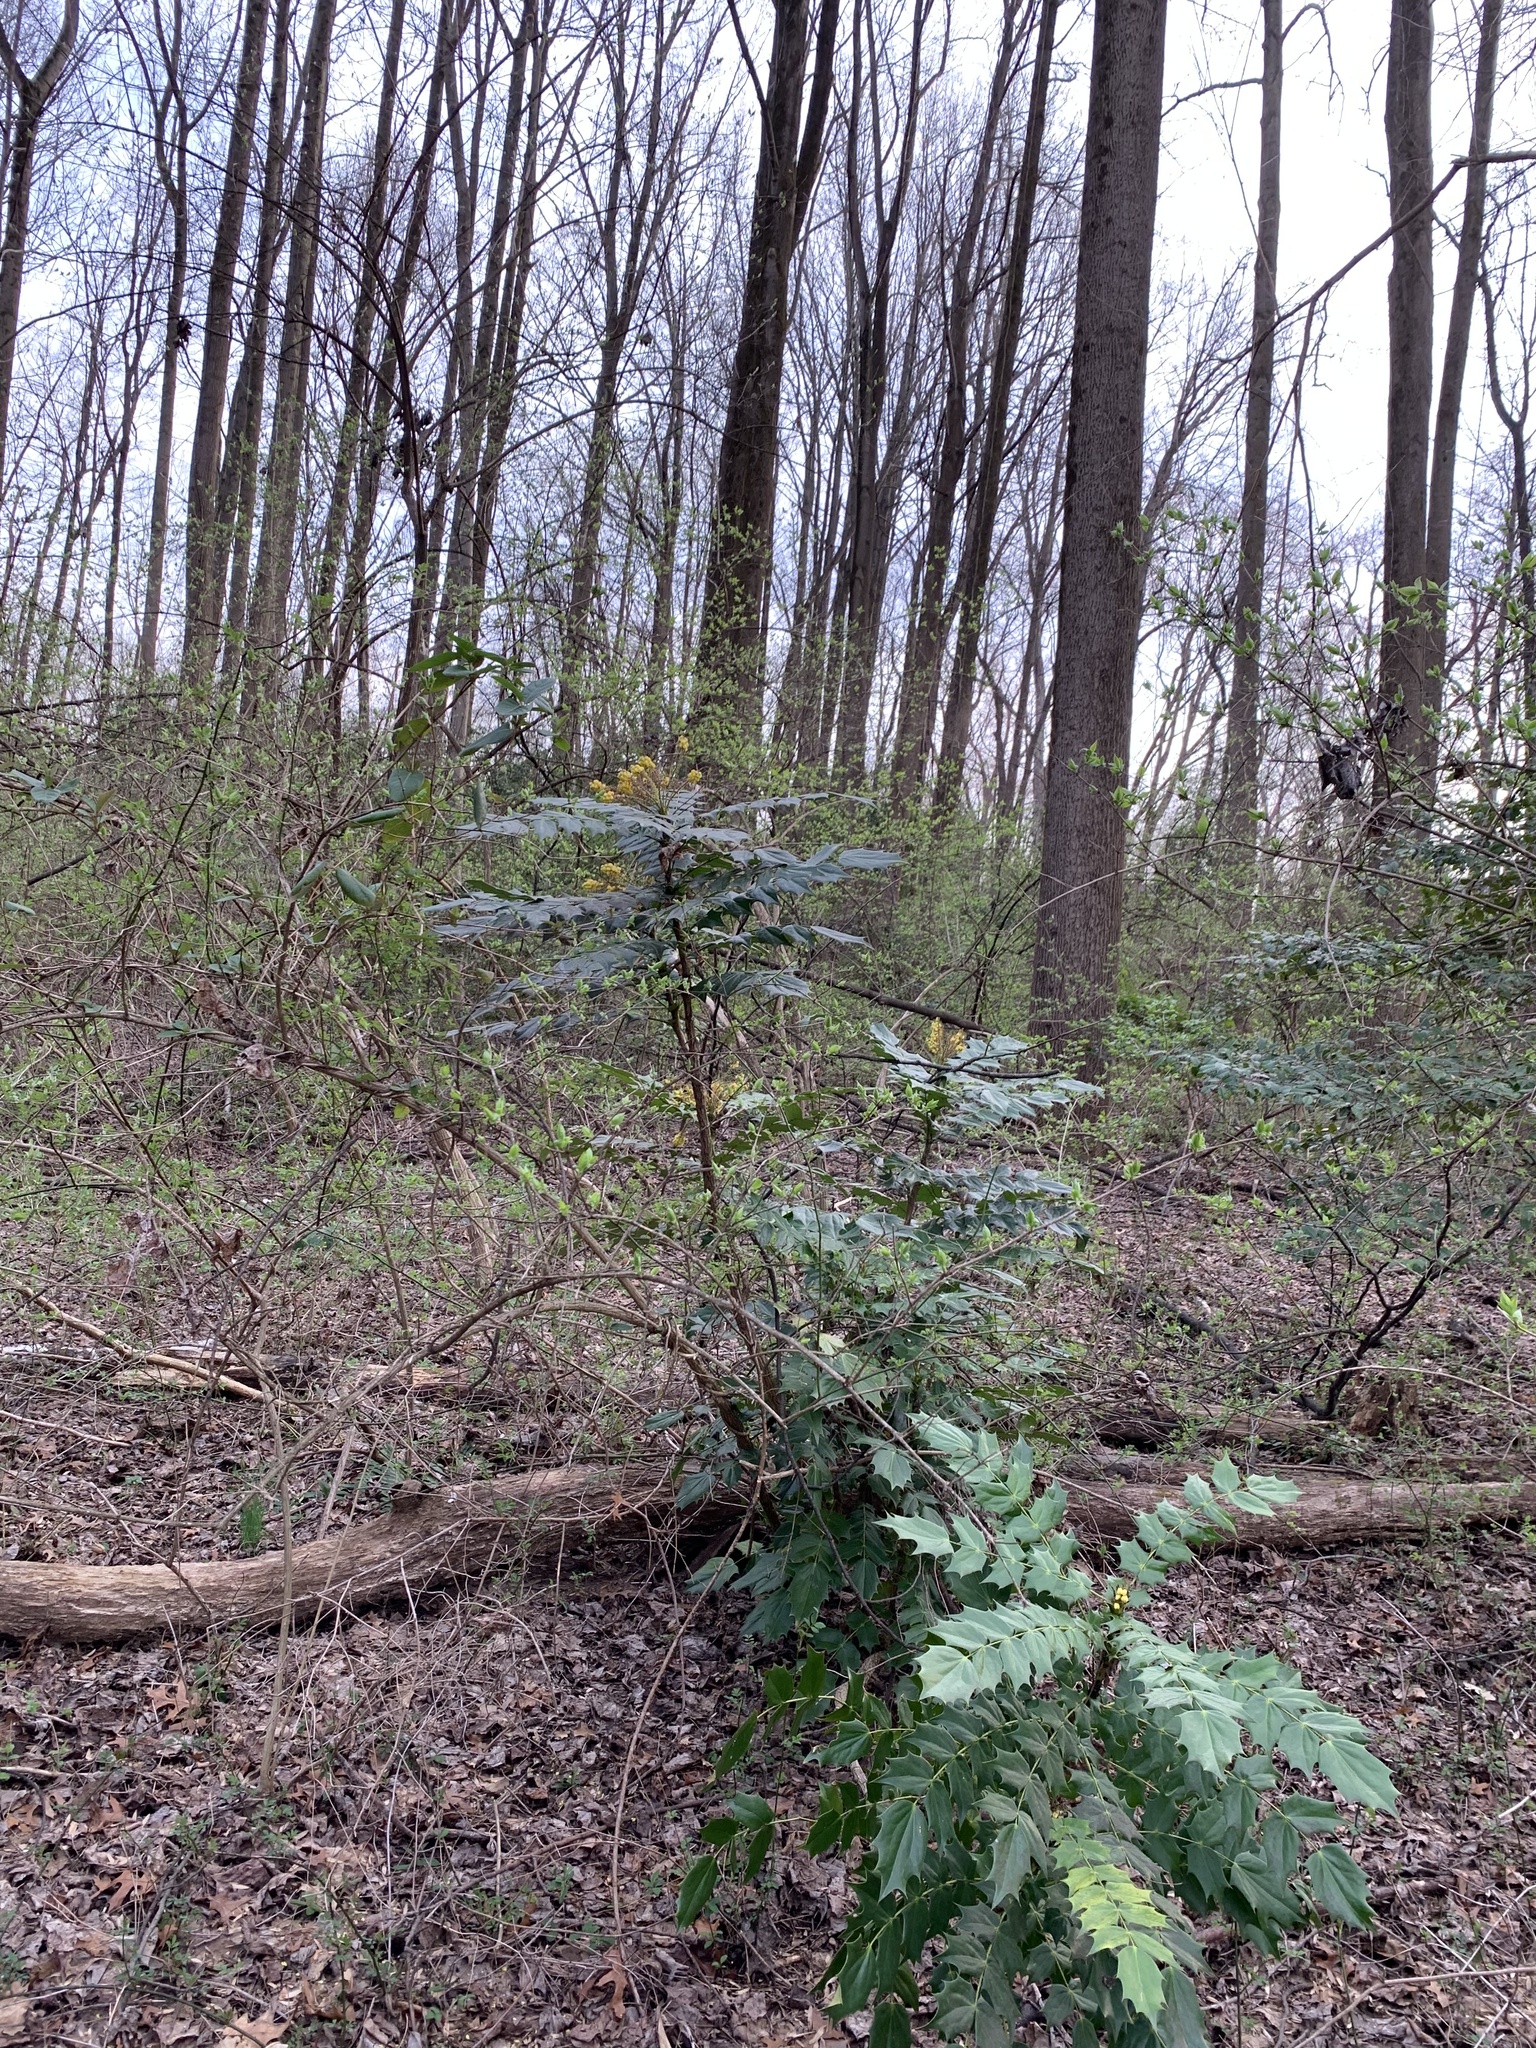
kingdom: Plantae
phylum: Tracheophyta
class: Magnoliopsida
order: Ranunculales
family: Berberidaceae
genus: Mahonia
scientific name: Mahonia bealei
